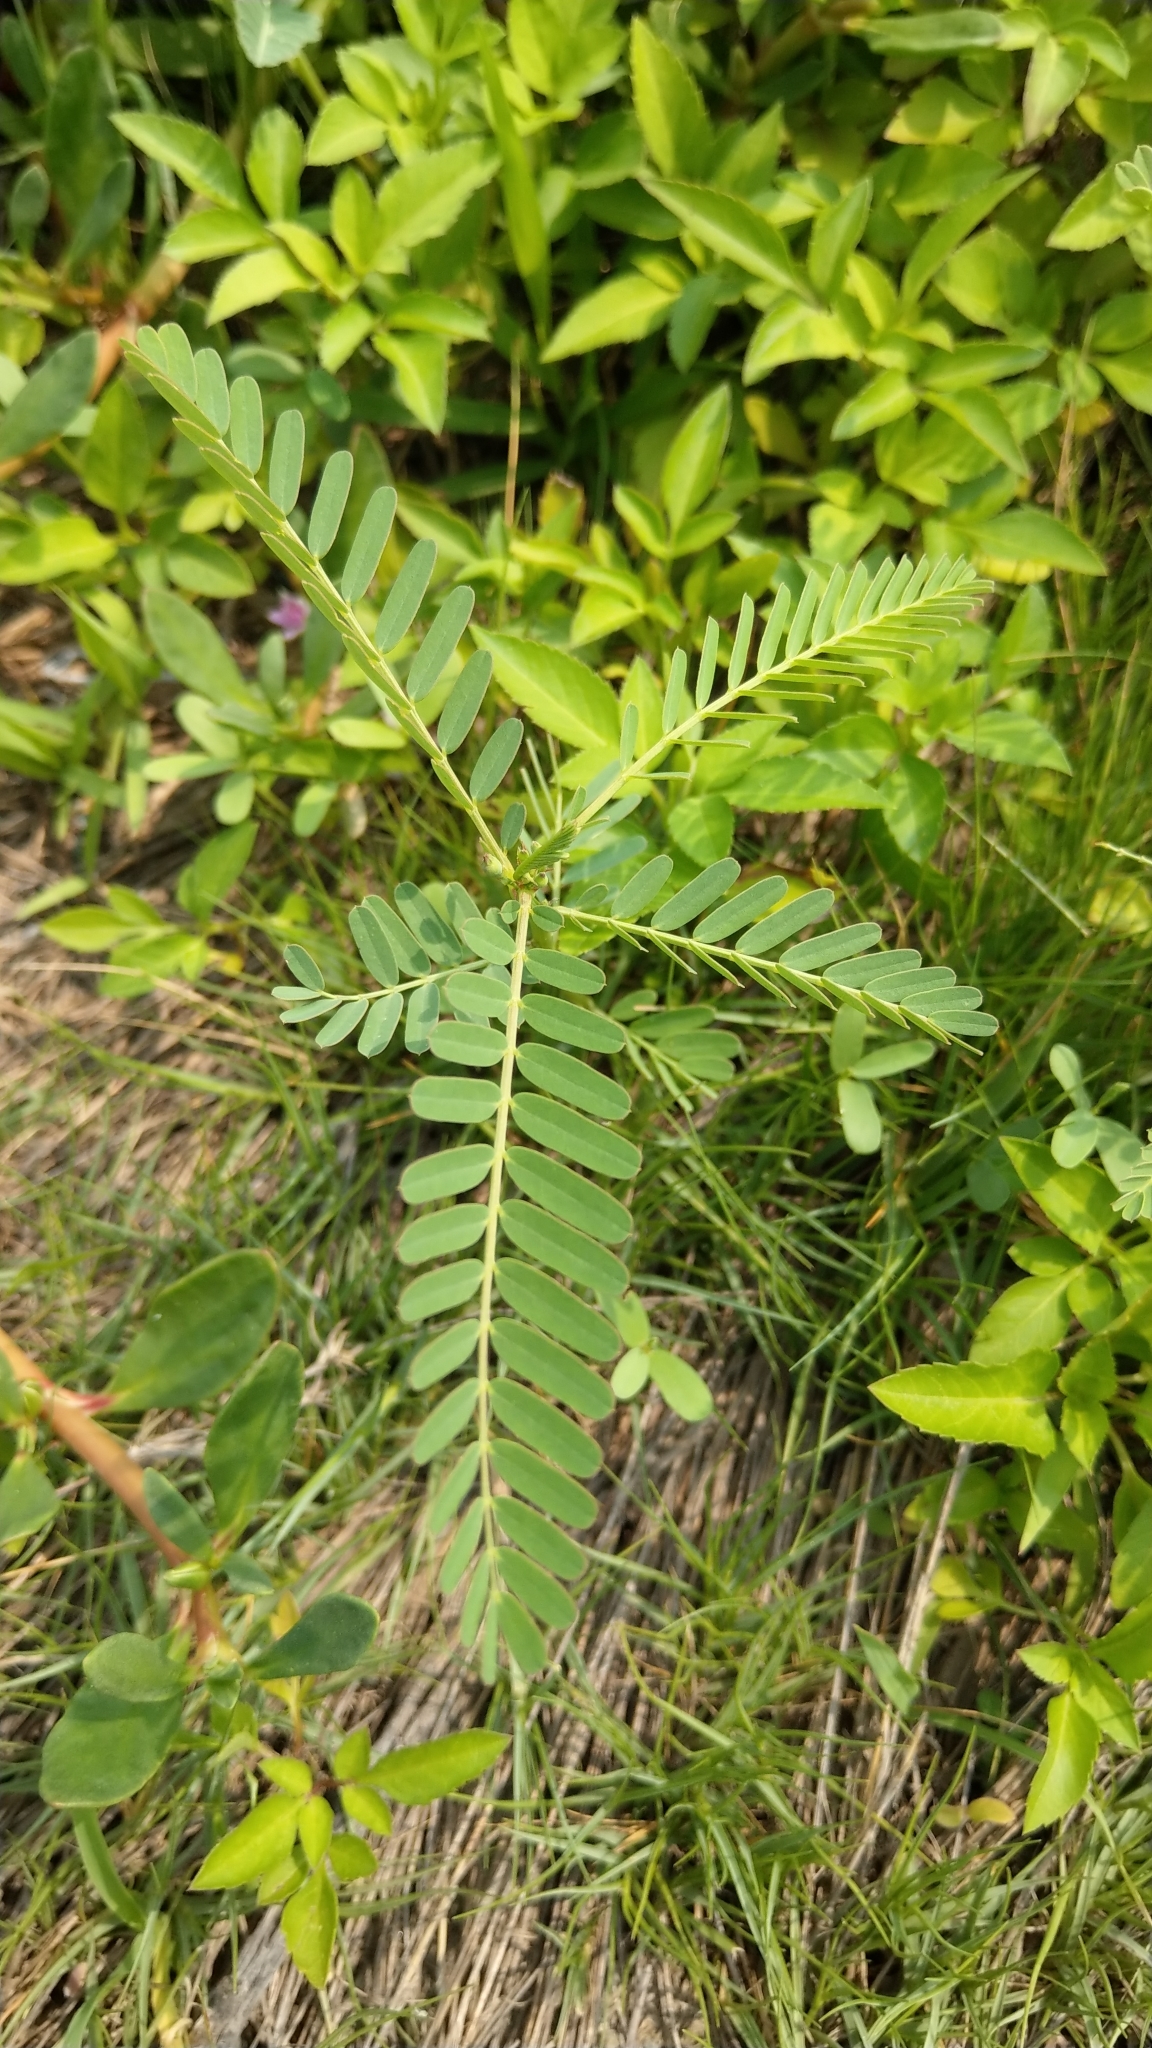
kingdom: Plantae
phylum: Tracheophyta
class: Magnoliopsida
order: Fabales
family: Fabaceae
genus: Sesbania
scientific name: Sesbania cannabina
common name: Canicha
